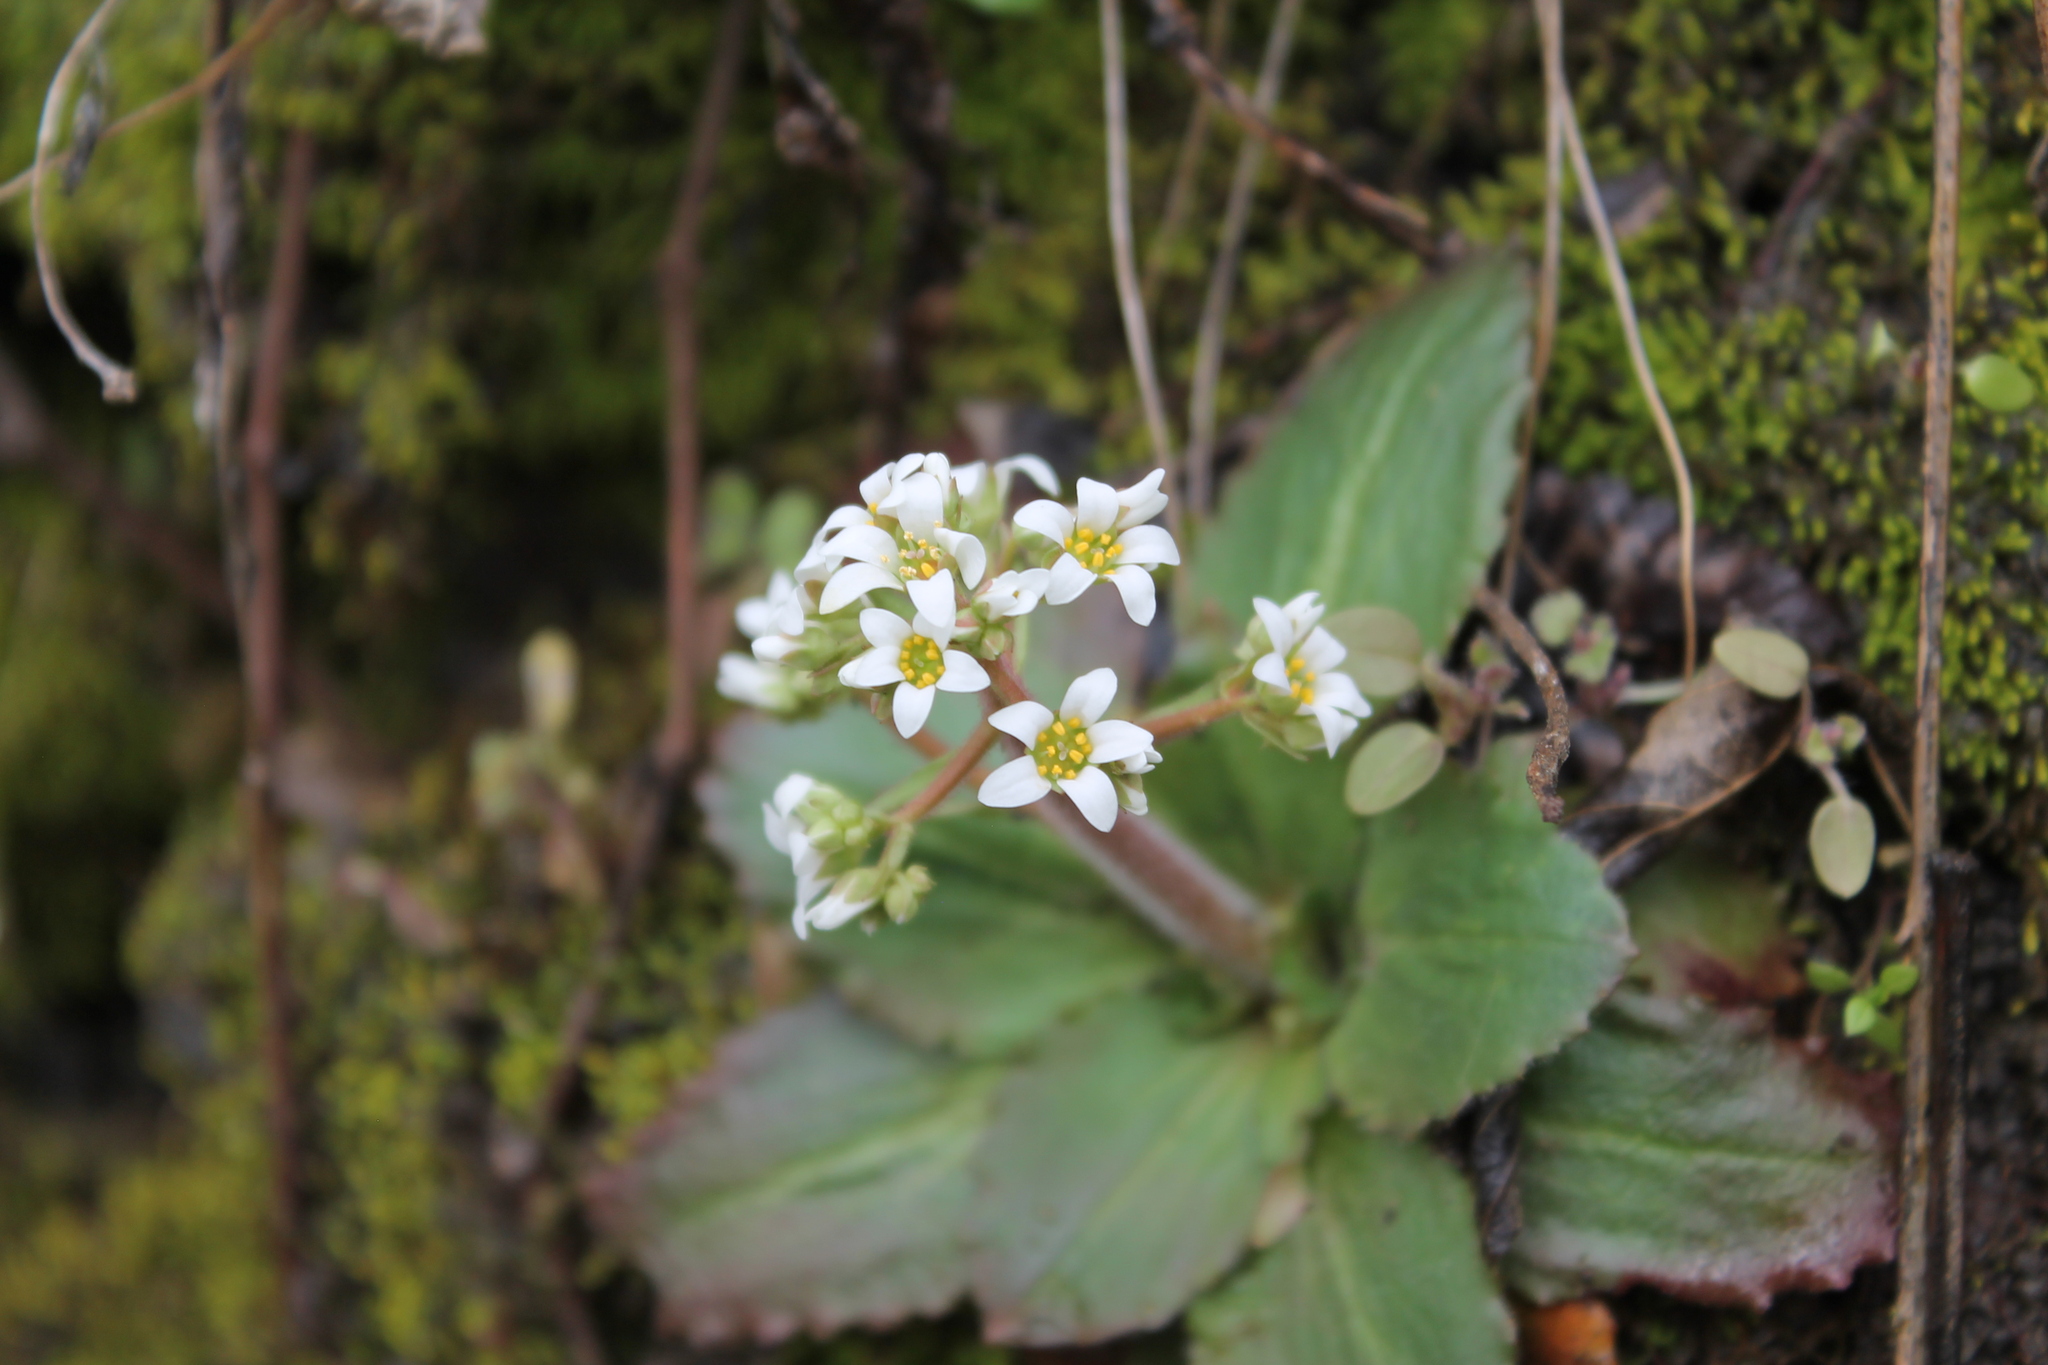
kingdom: Plantae
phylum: Tracheophyta
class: Magnoliopsida
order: Saxifragales
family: Saxifragaceae
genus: Micranthes
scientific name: Micranthes virginiensis
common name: Early saxifrage
